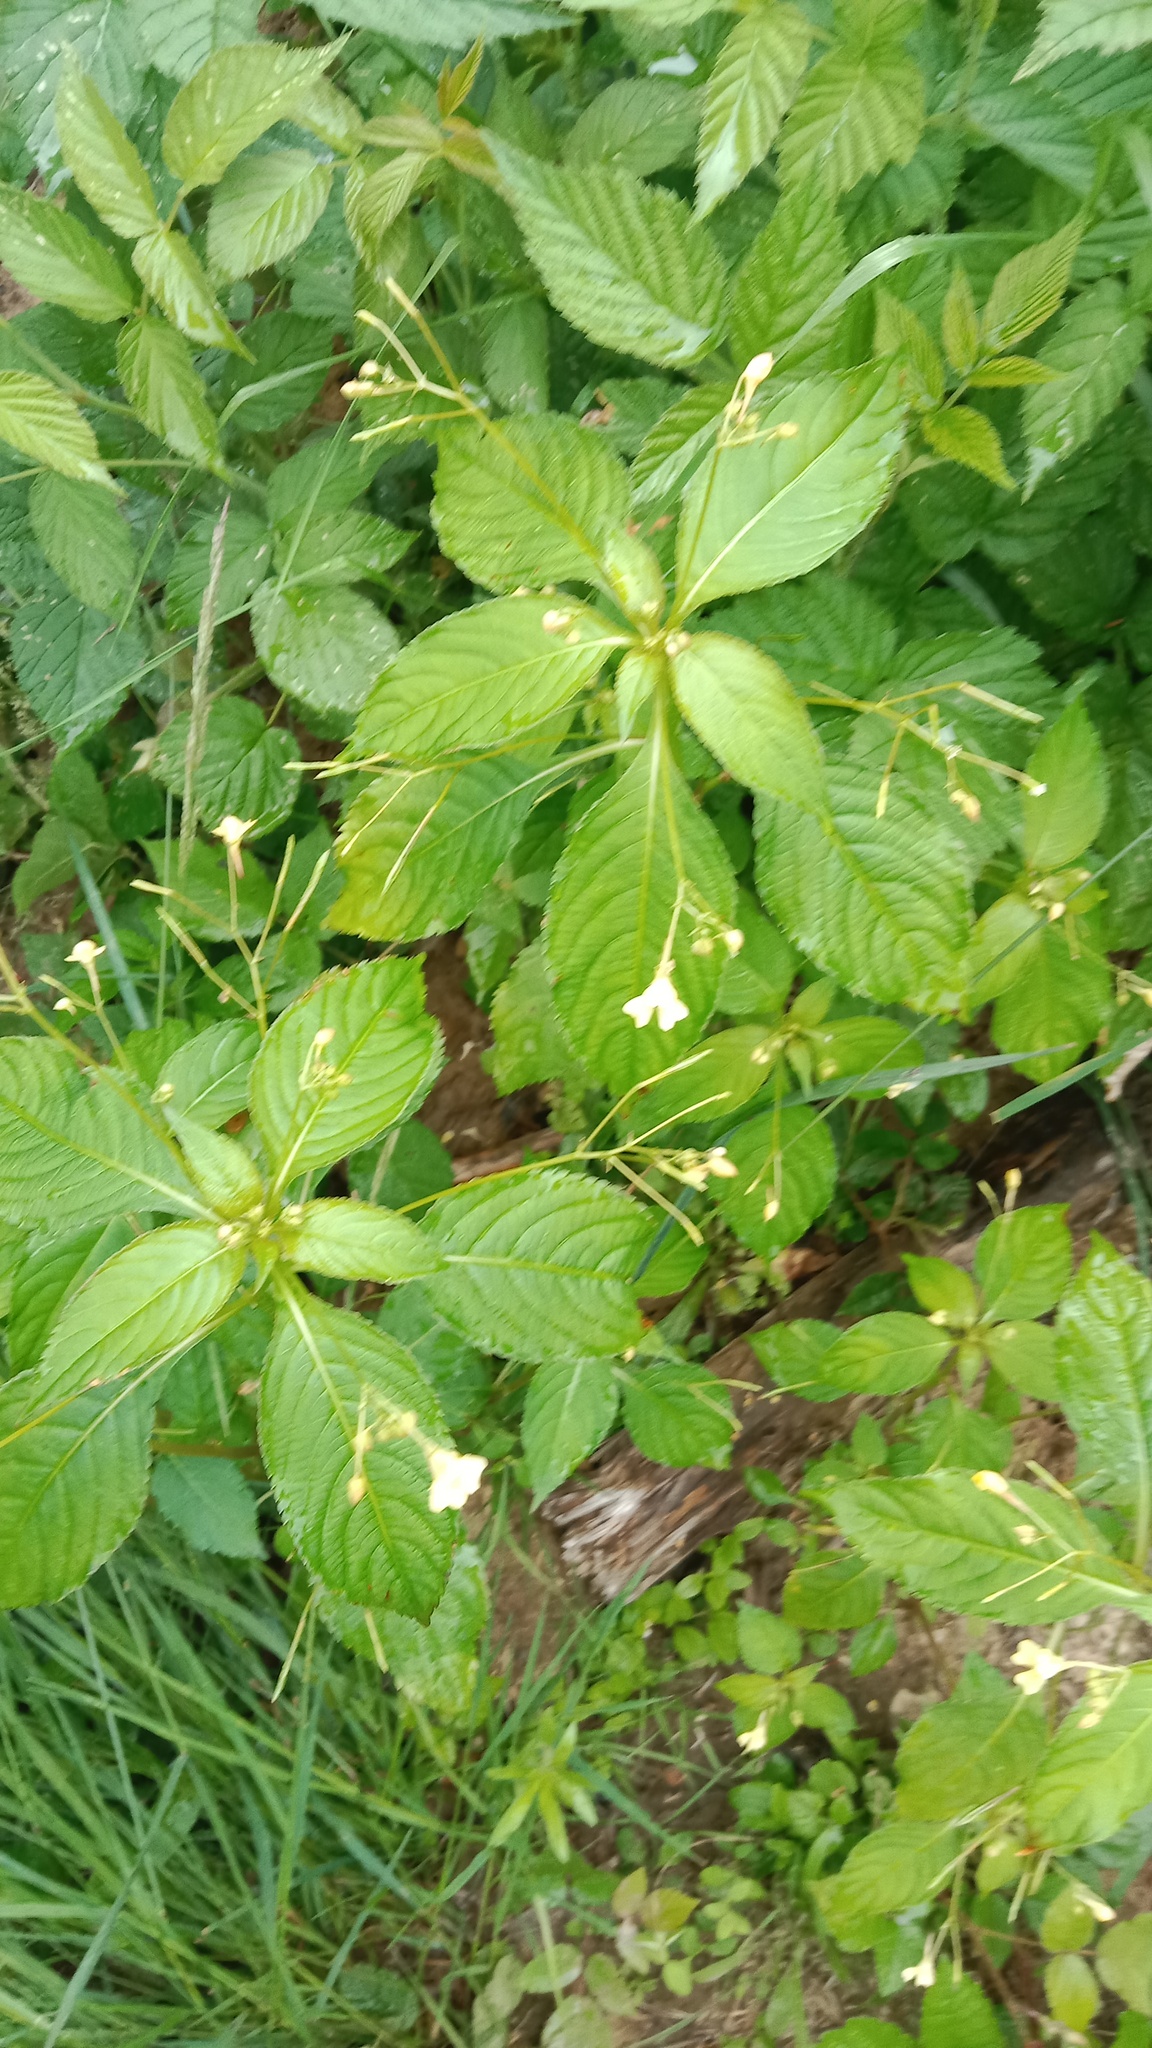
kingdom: Plantae
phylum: Tracheophyta
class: Magnoliopsida
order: Ericales
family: Balsaminaceae
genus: Impatiens
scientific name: Impatiens parviflora
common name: Small balsam
